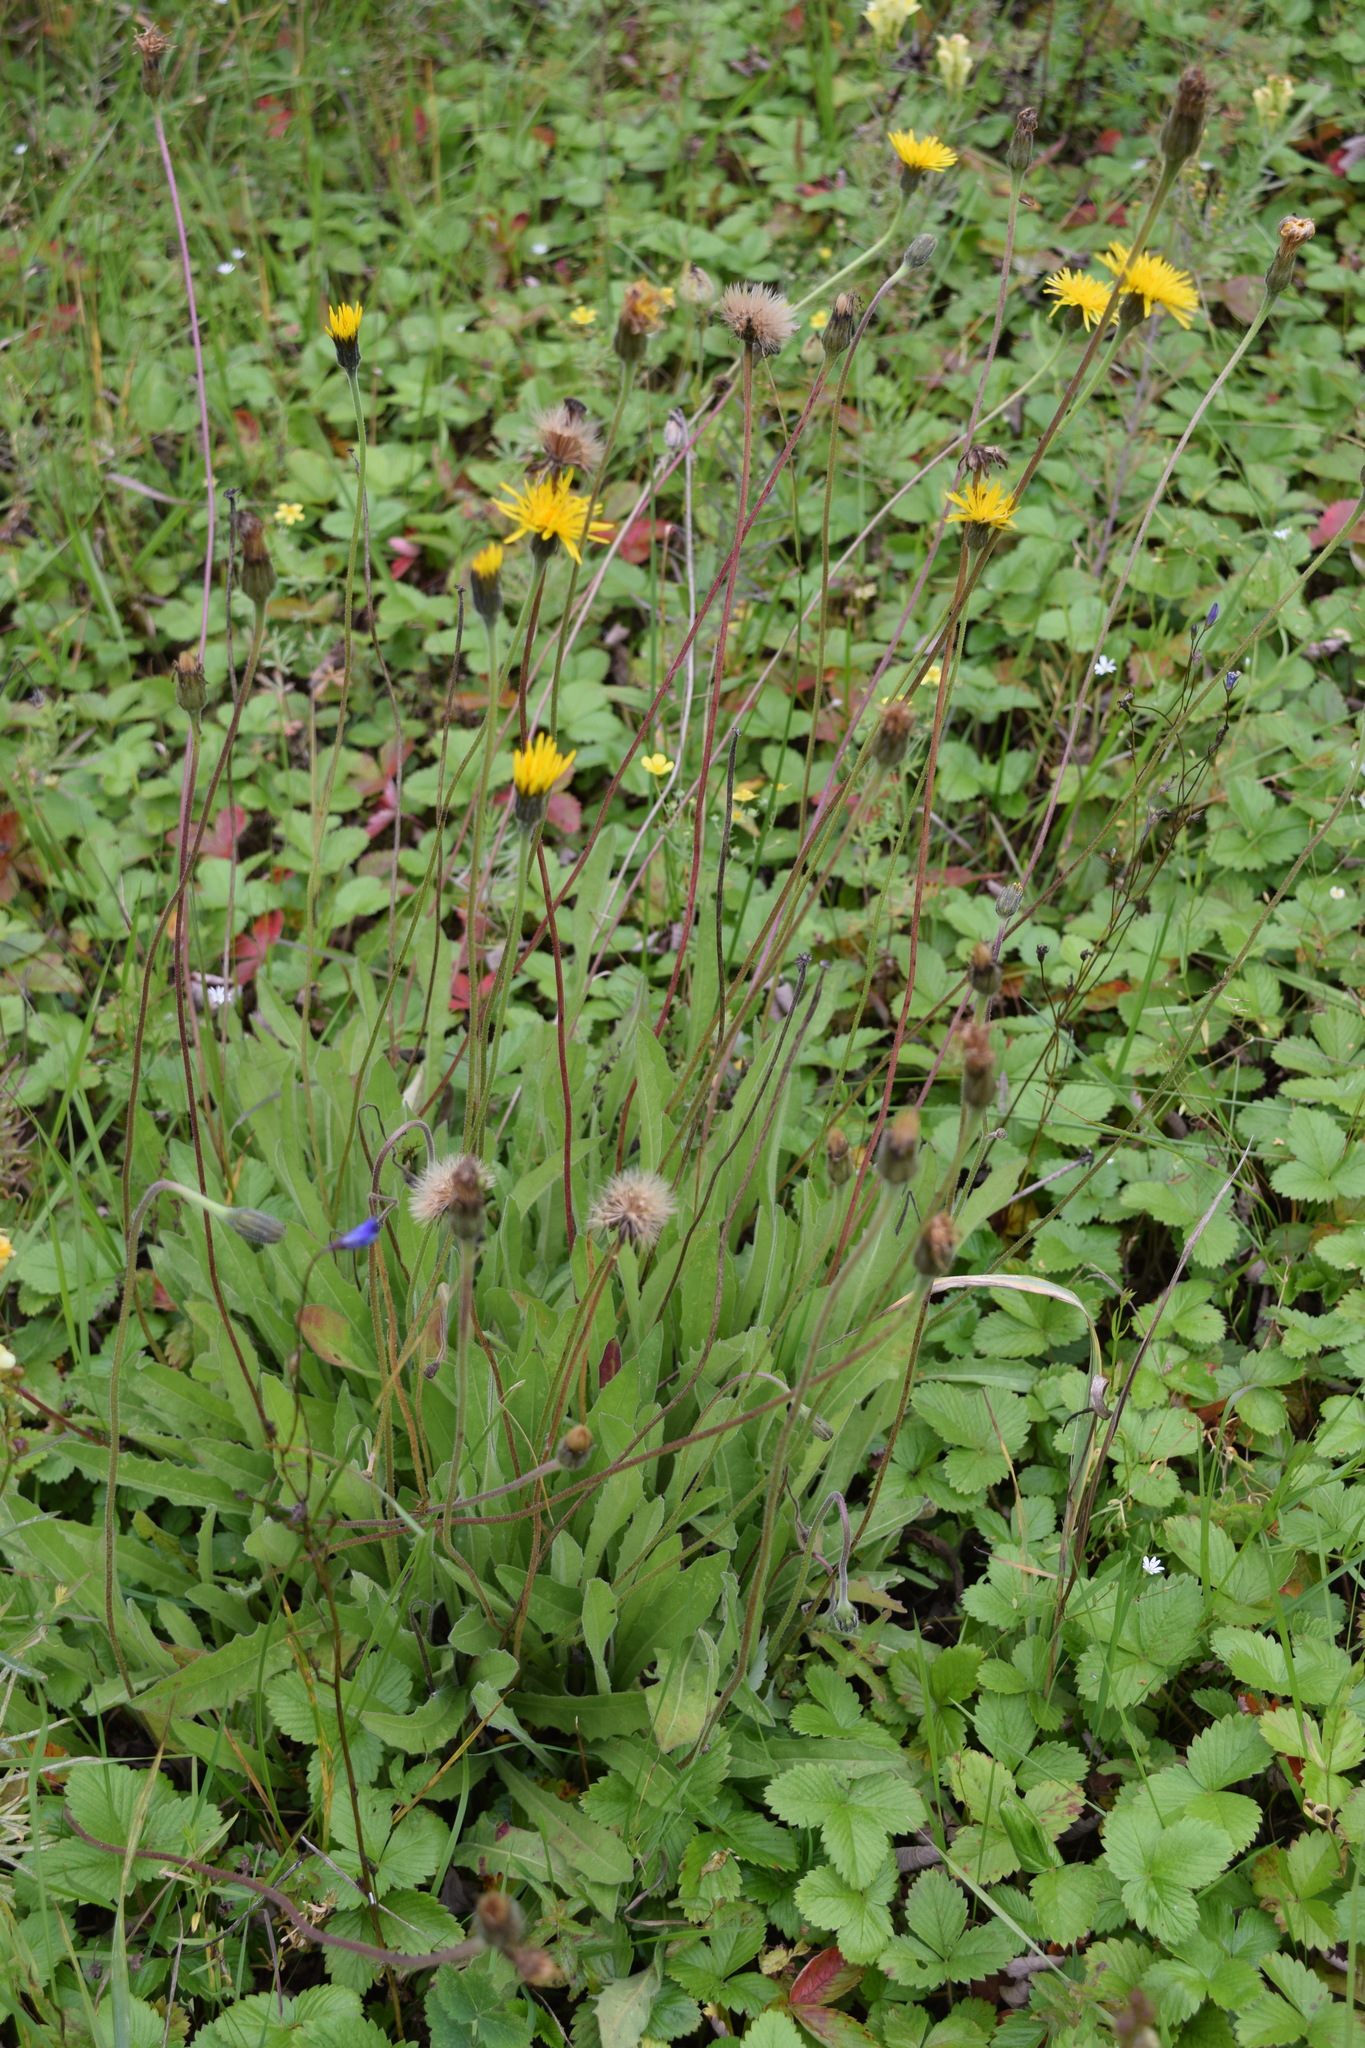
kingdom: Plantae
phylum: Tracheophyta
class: Magnoliopsida
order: Asterales
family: Asteraceae
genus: Leontodon
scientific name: Leontodon hispidus
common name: Rough hawkbit
